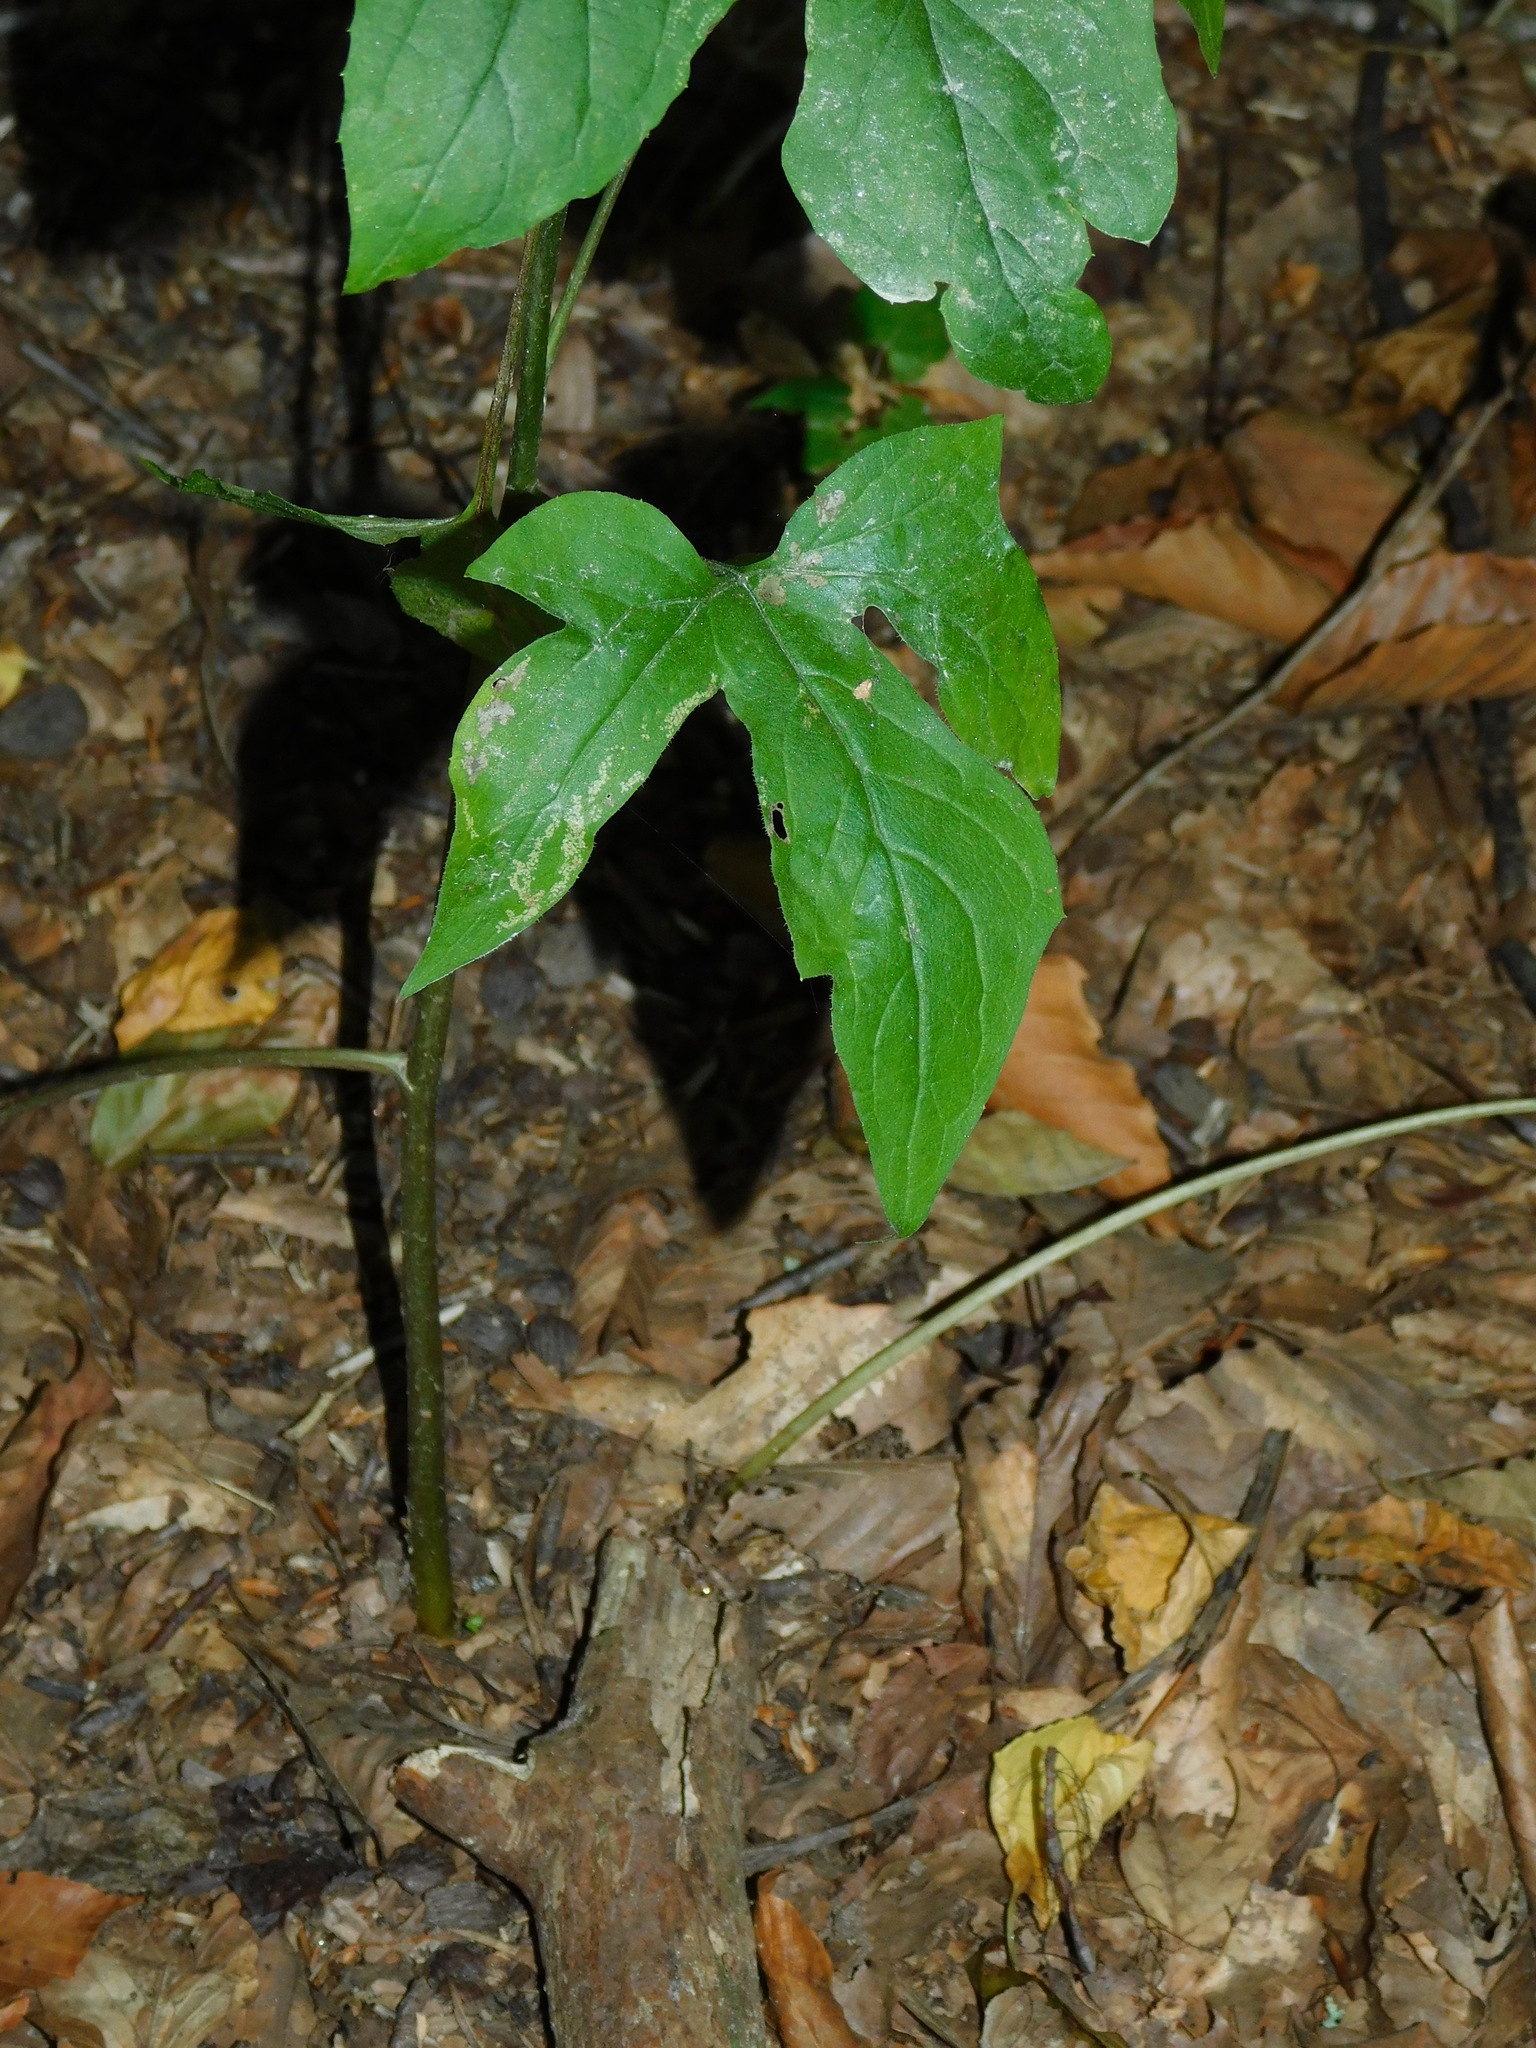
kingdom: Plantae
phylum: Tracheophyta
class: Magnoliopsida
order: Asterales
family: Asteraceae
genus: Nabalus
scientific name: Nabalus altissima
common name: Tall rattlesnakeroot
